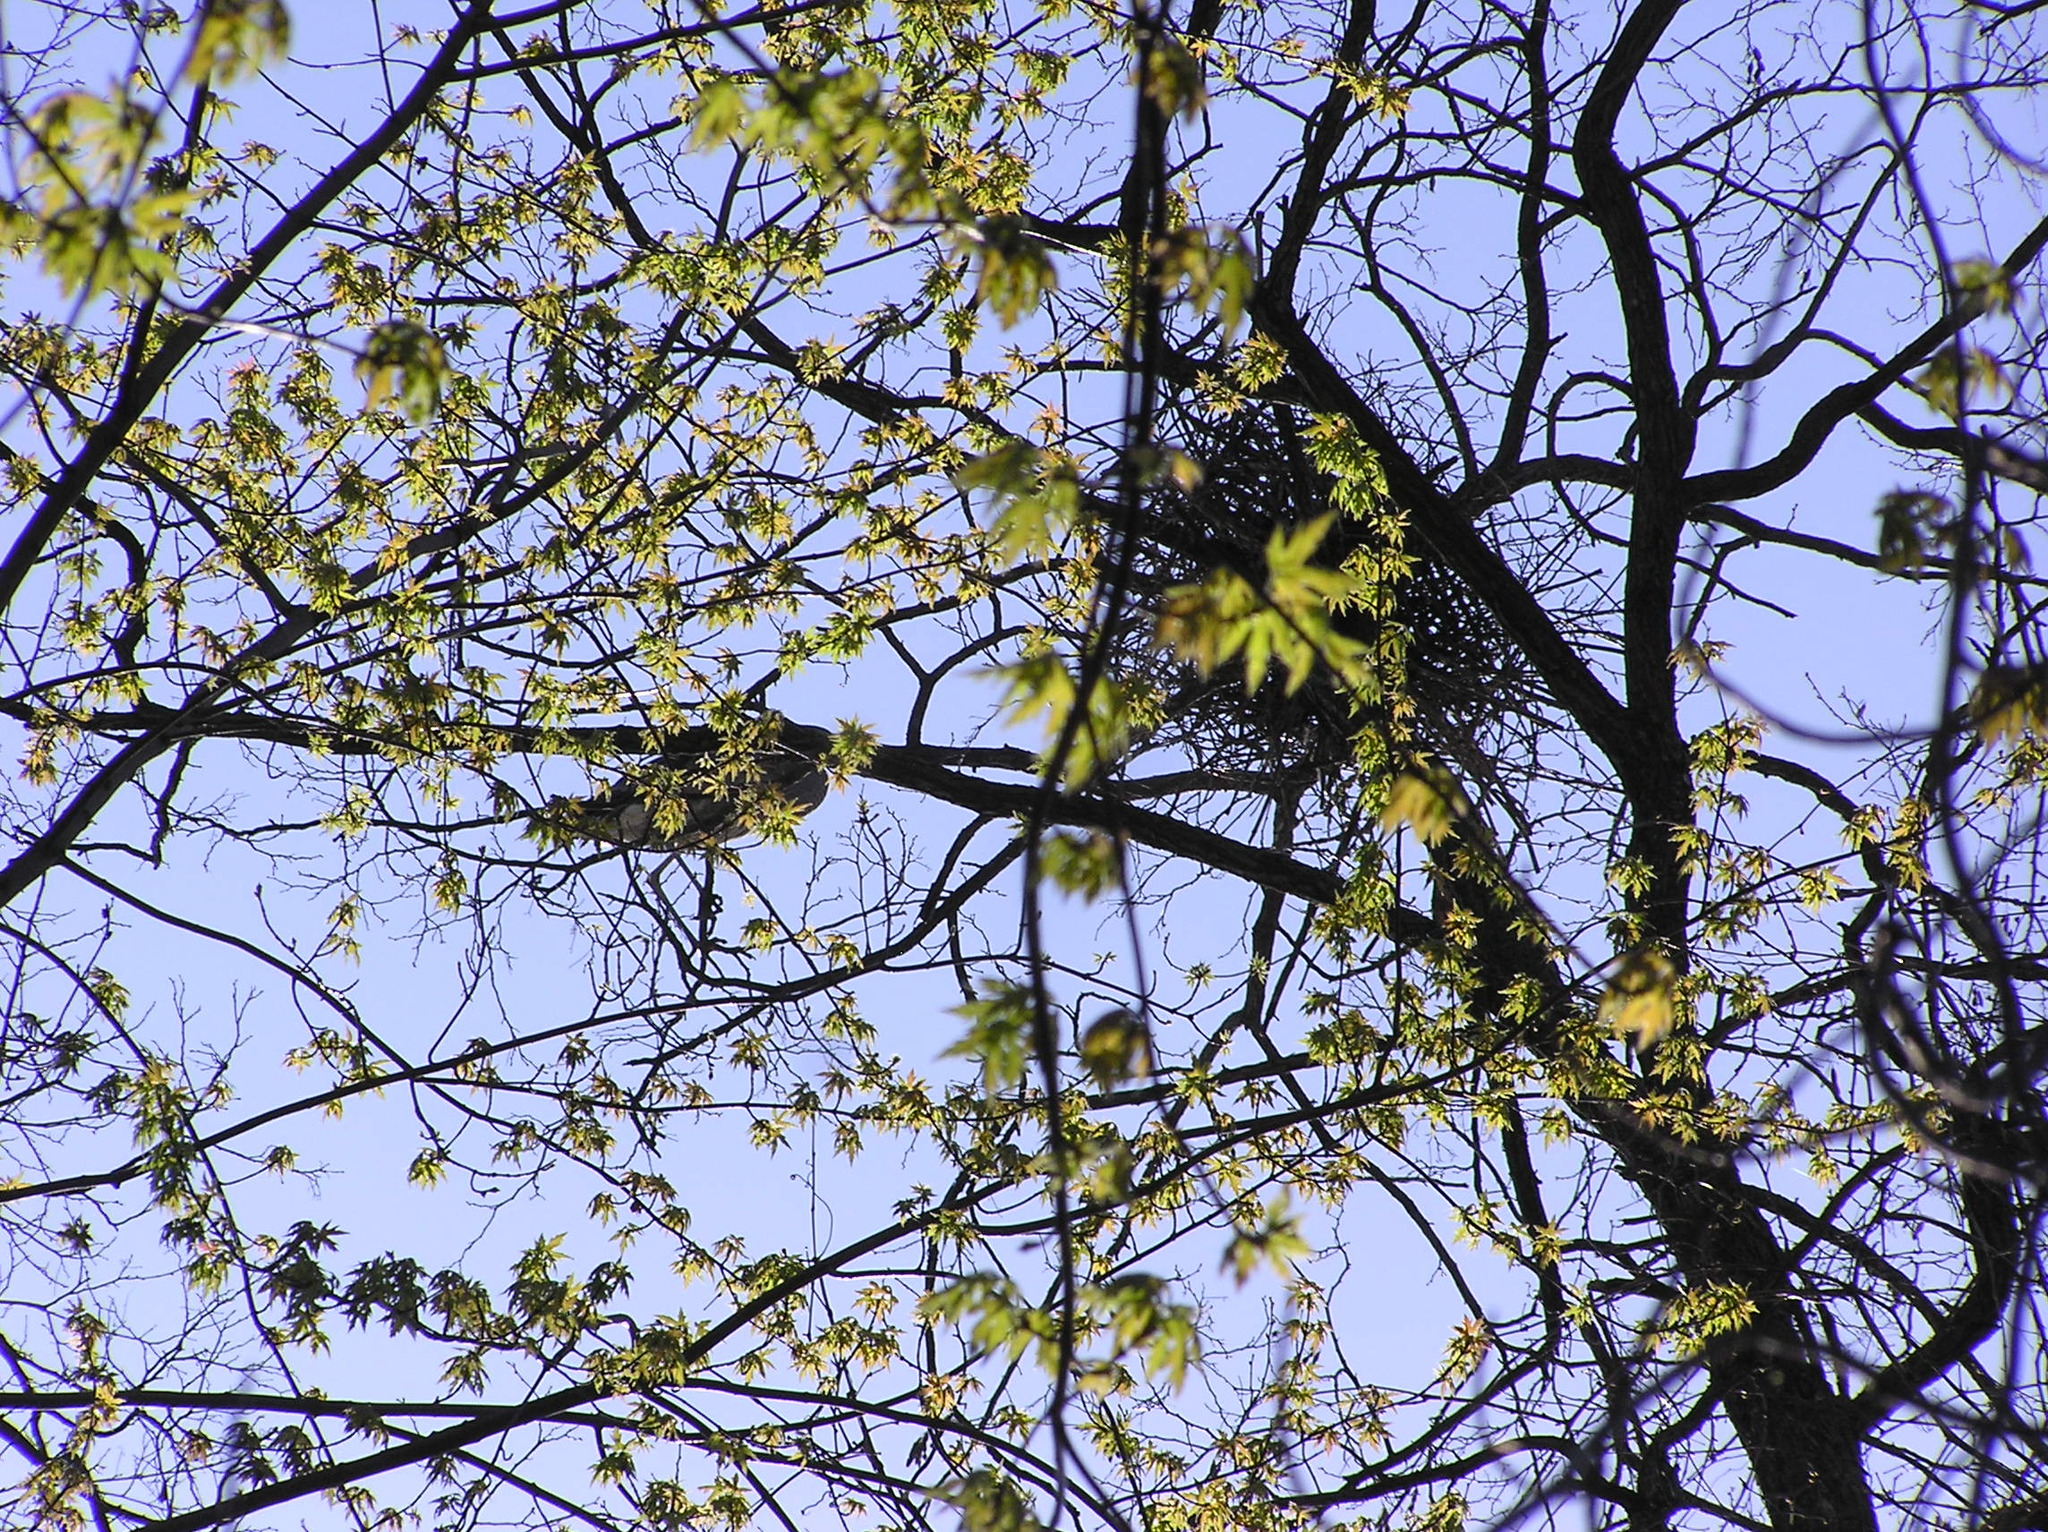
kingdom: Animalia
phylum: Chordata
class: Aves
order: Pelecaniformes
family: Ardeidae
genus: Ardea
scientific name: Ardea herodias
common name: Great blue heron
